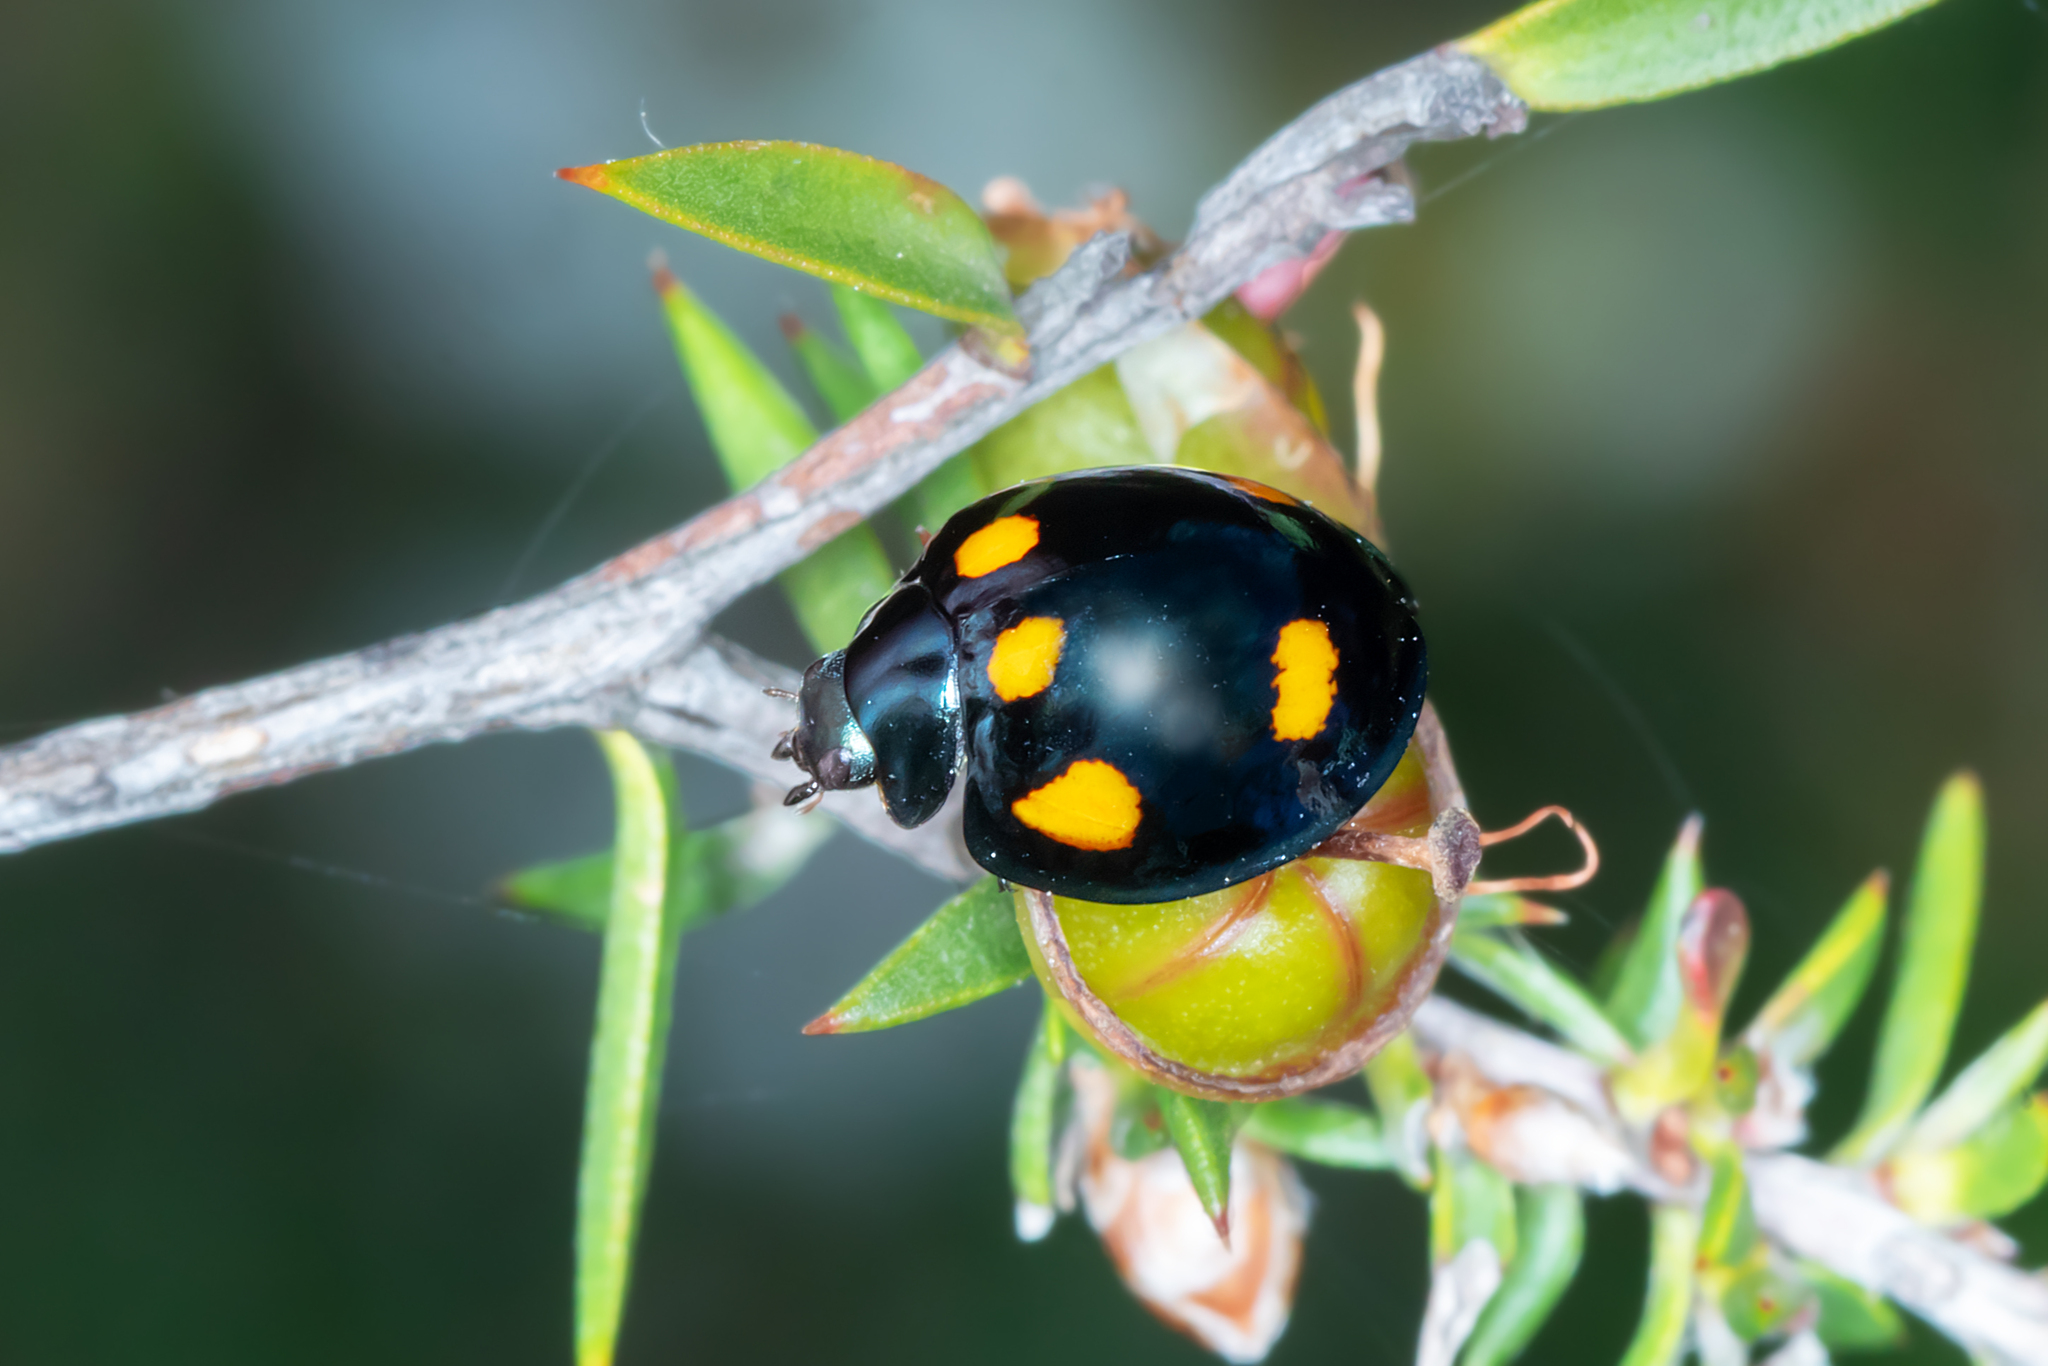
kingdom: Animalia
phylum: Arthropoda
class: Insecta
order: Coleoptera
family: Coccinellidae
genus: Orcus
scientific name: Orcus australasiae
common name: Lady beetle
